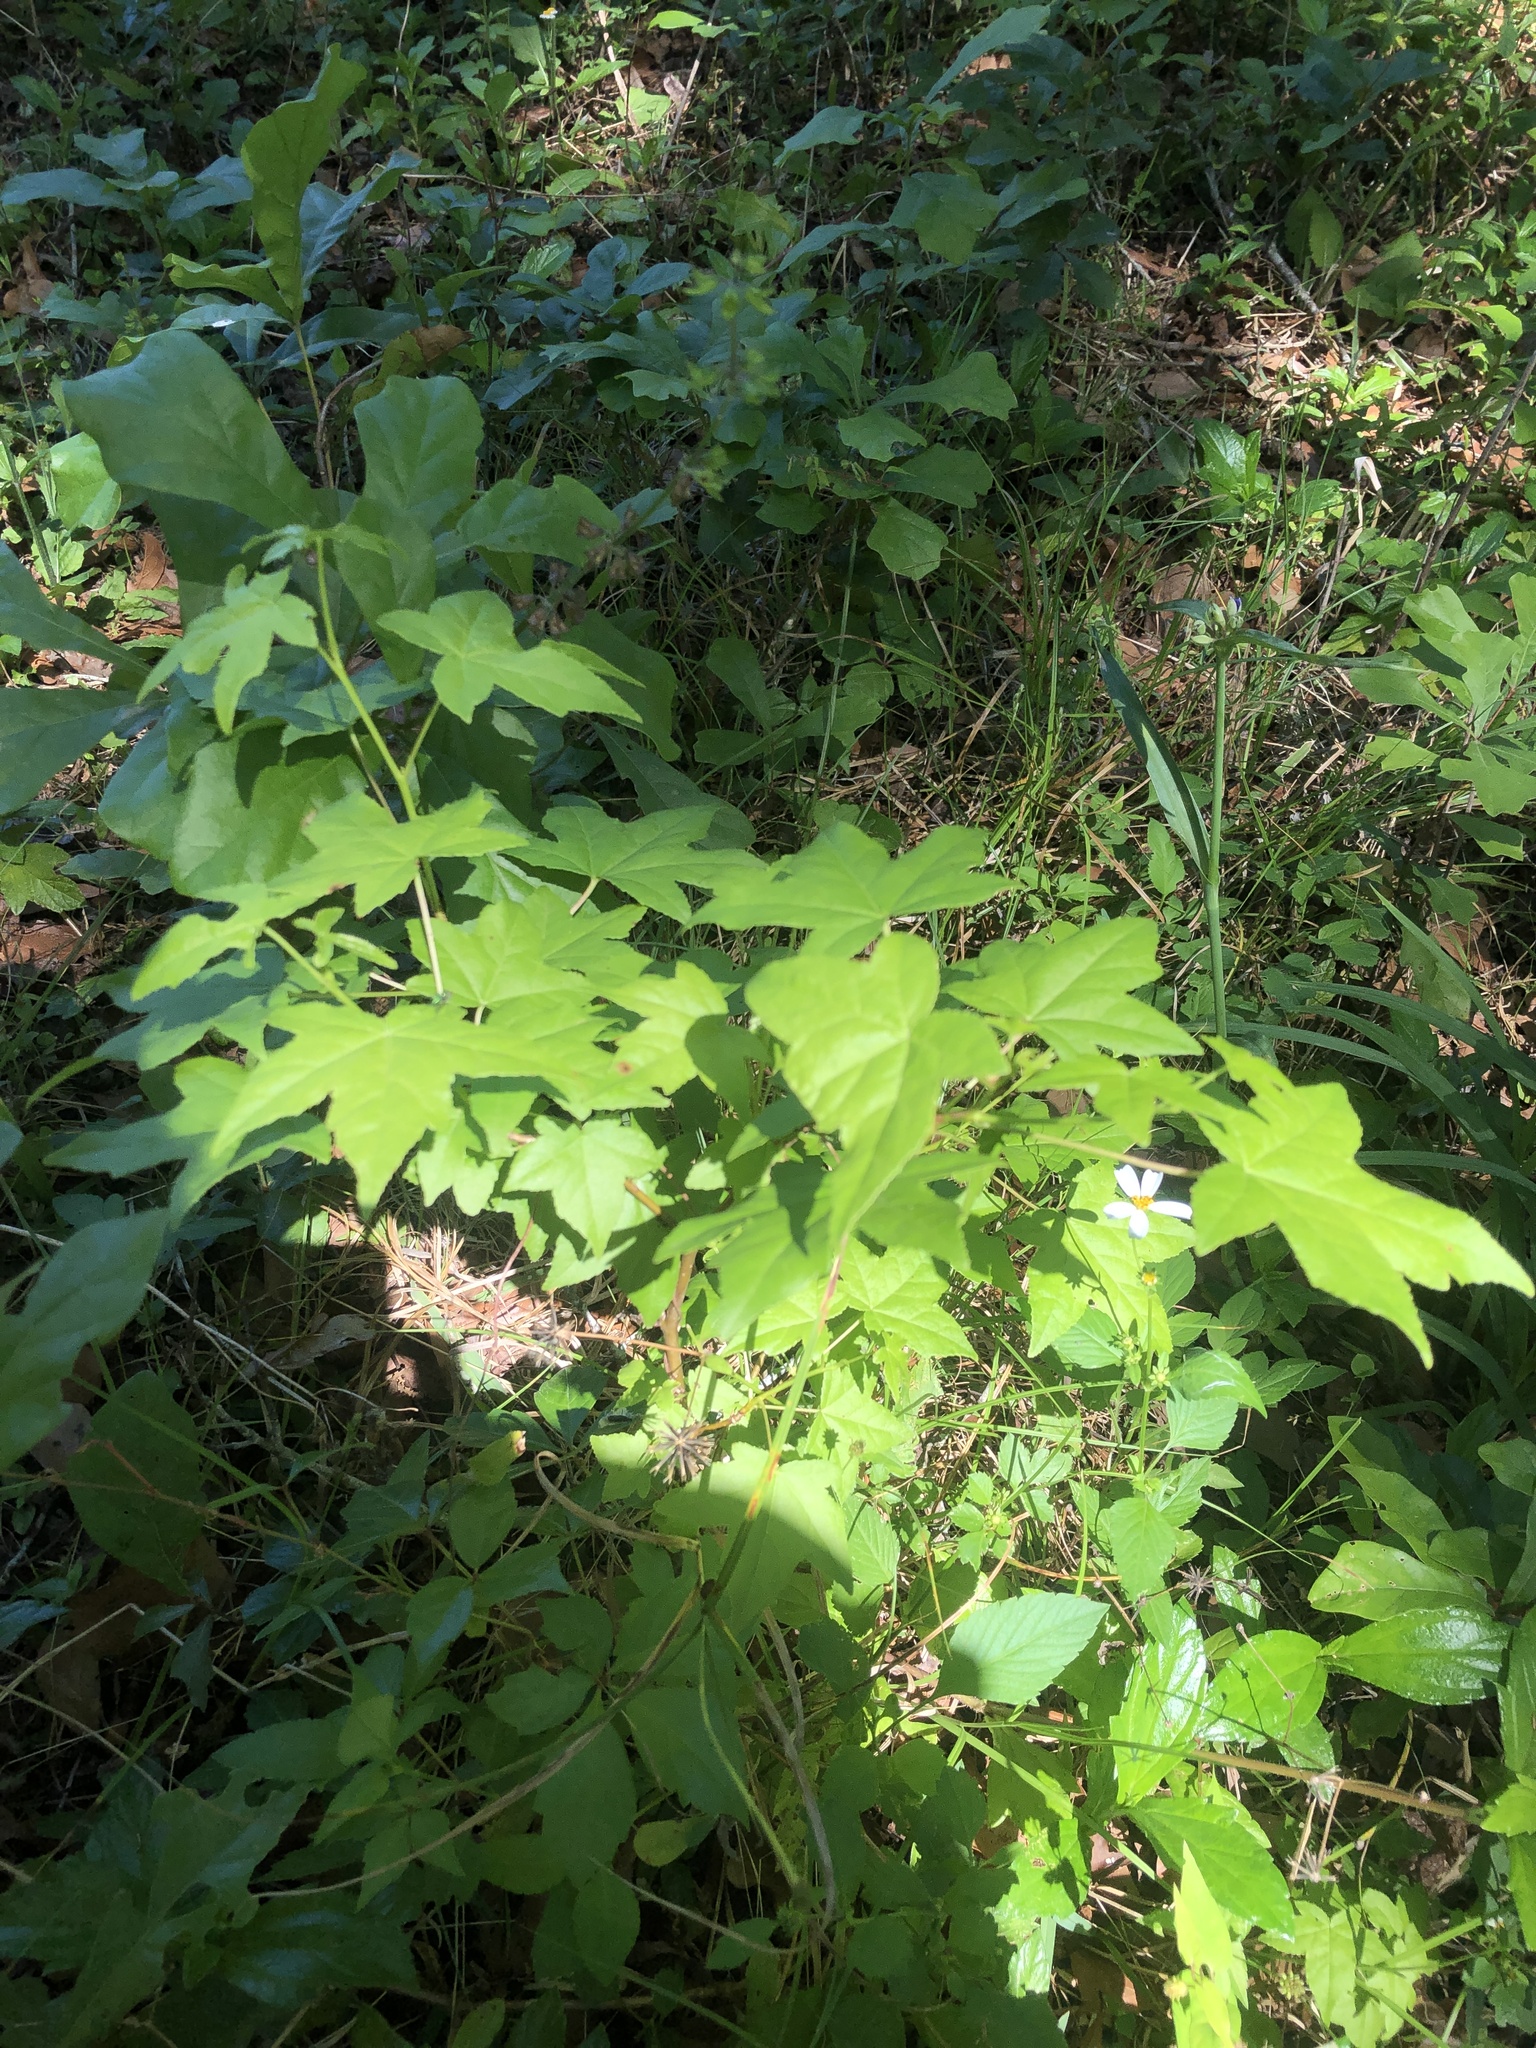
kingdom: Plantae
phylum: Tracheophyta
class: Magnoliopsida
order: Saxifragales
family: Altingiaceae
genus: Liquidambar
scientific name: Liquidambar styraciflua
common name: Sweet gum
